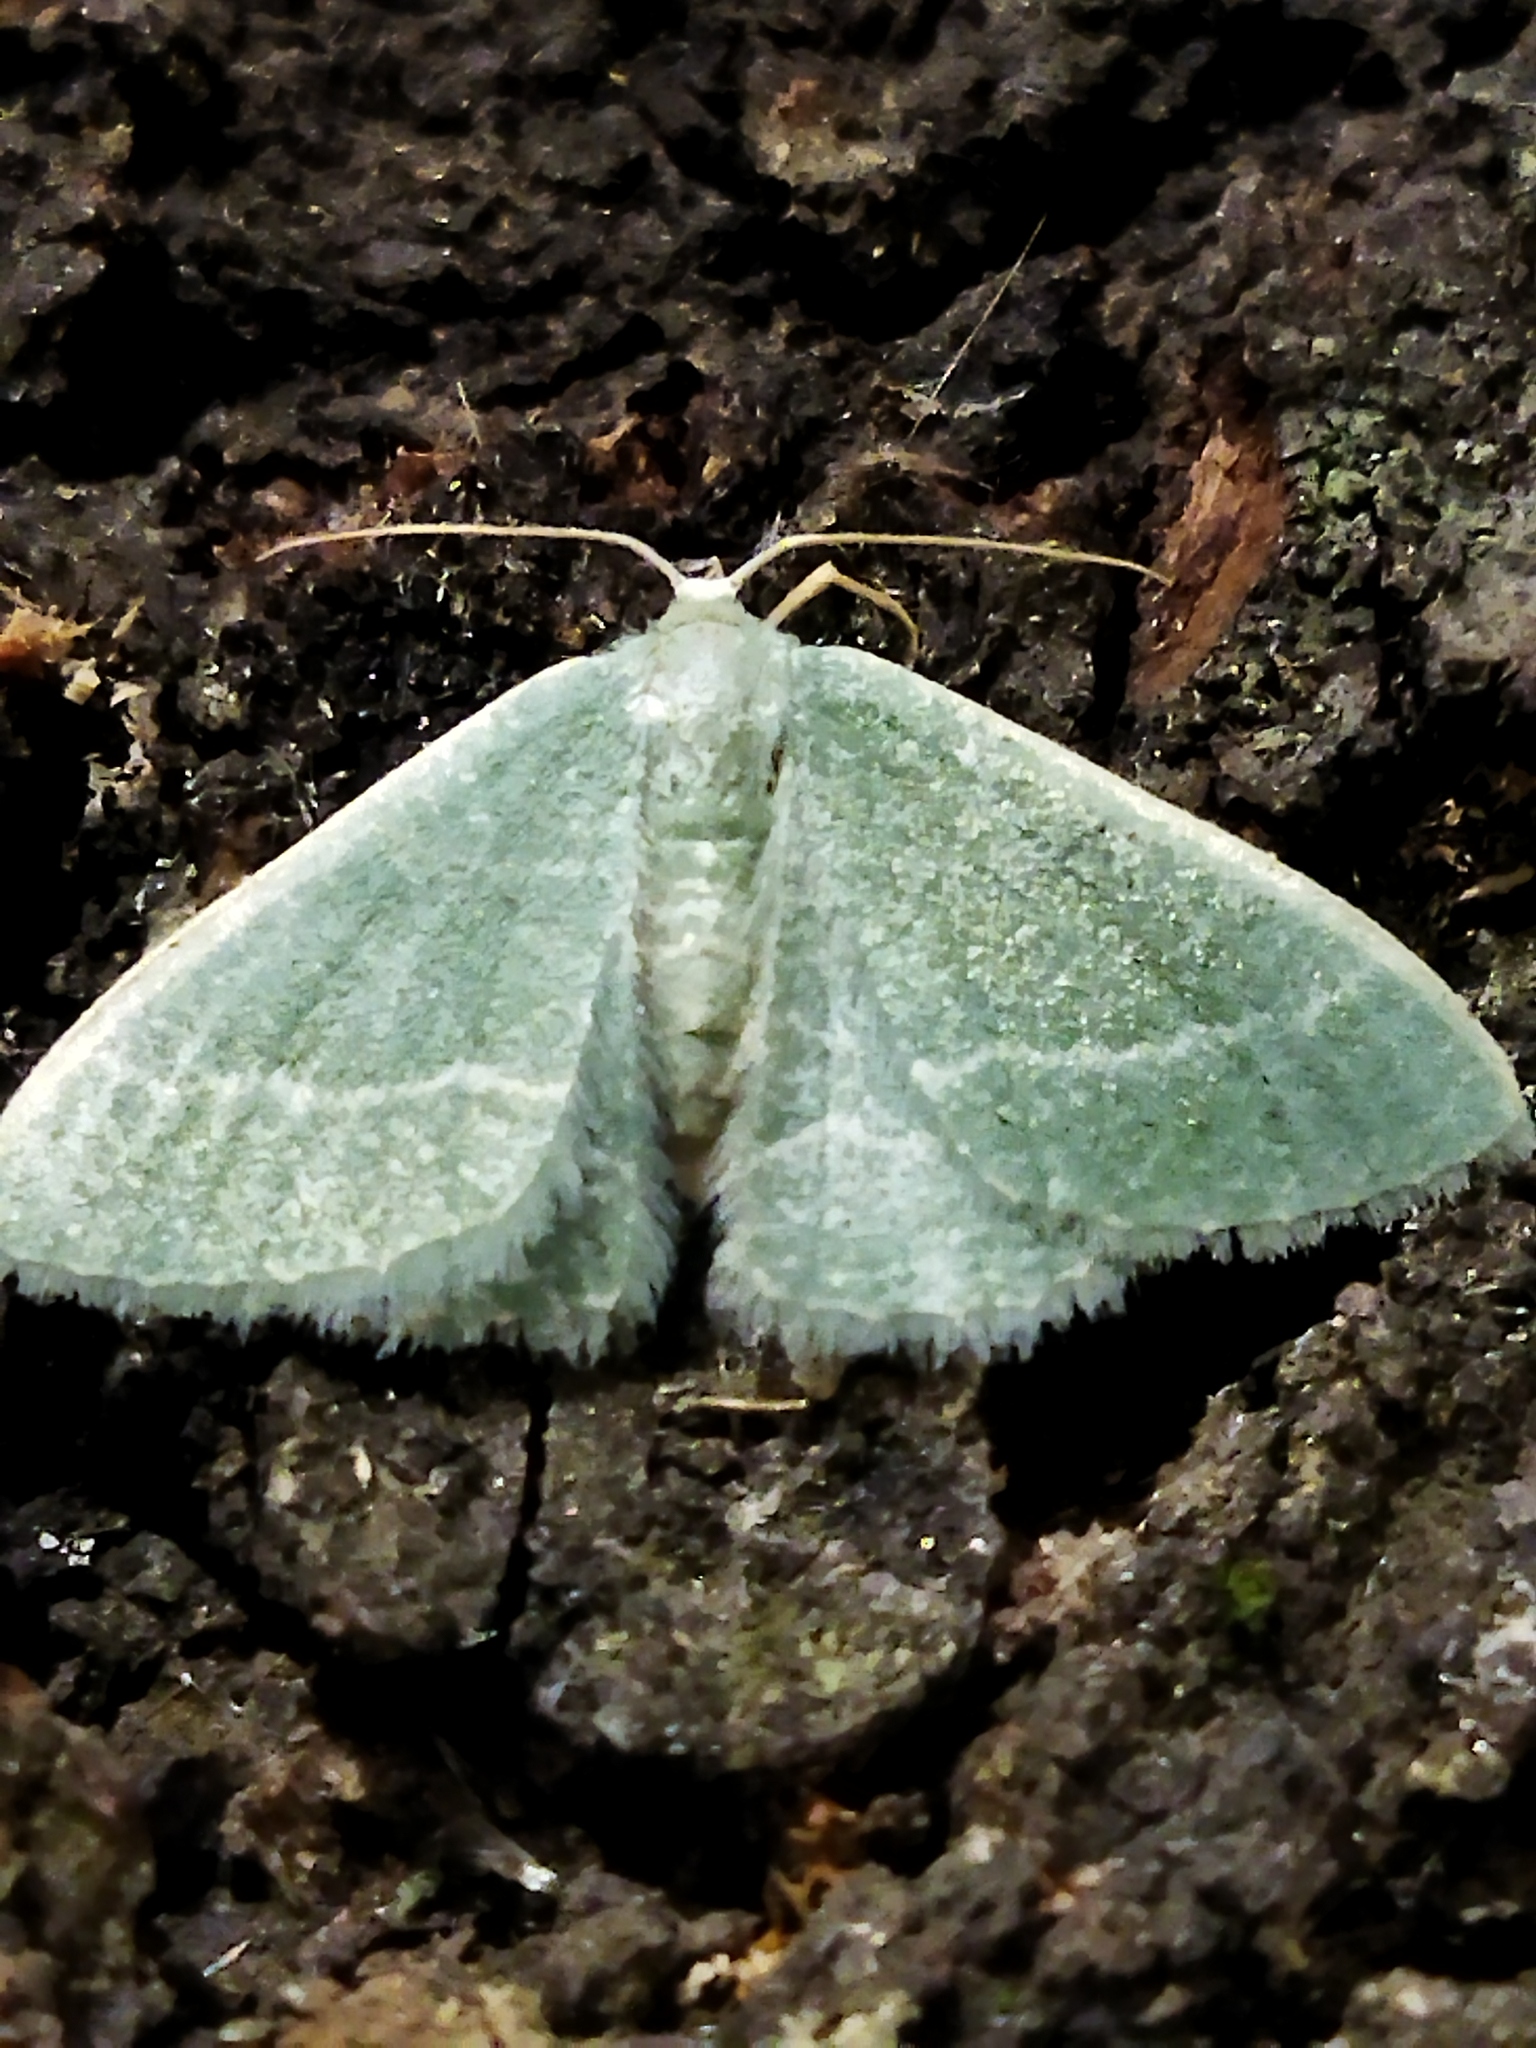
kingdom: Animalia
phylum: Arthropoda
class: Insecta
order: Lepidoptera
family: Geometridae
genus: Chlorissa
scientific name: Chlorissa etruscaria
